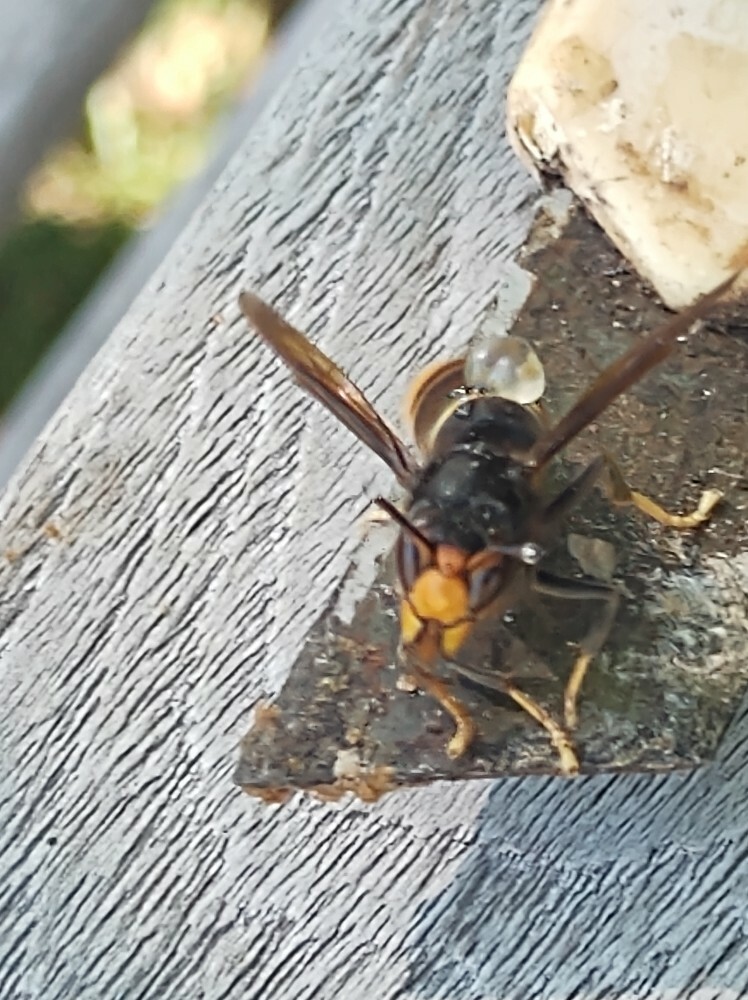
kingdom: Animalia
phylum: Arthropoda
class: Insecta
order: Hymenoptera
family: Vespidae
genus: Vespa
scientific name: Vespa velutina
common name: Asian hornet
